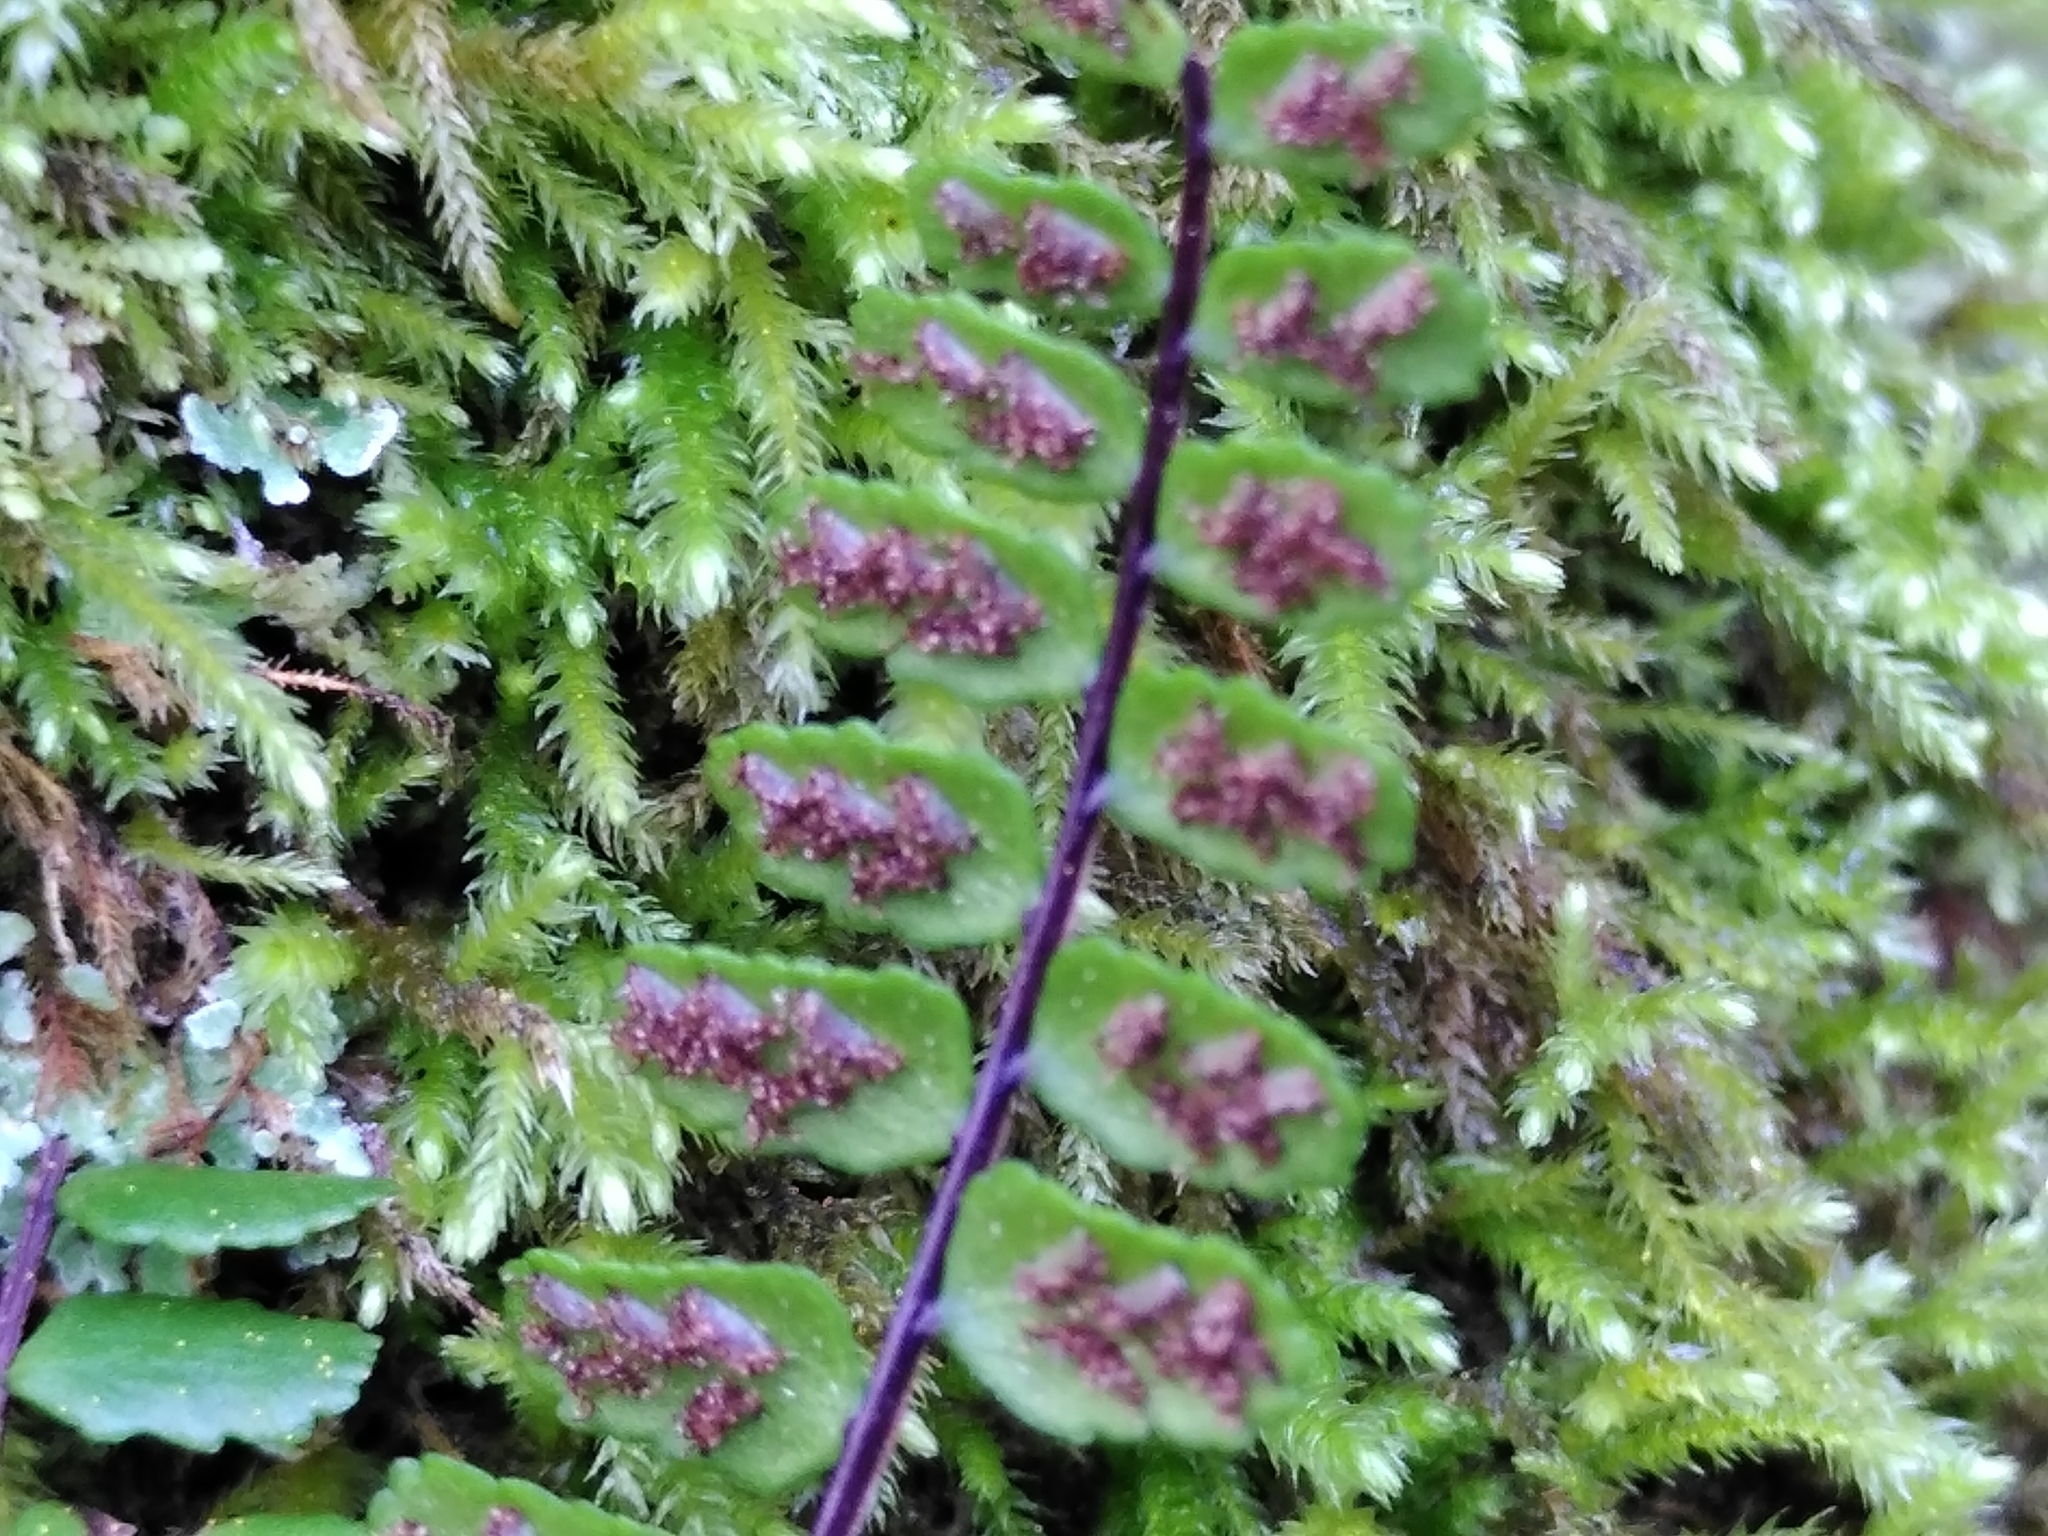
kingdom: Plantae
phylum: Tracheophyta
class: Polypodiopsida
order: Polypodiales
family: Aspleniaceae
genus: Asplenium
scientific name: Asplenium trichomanes
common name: Maidenhair spleenwort
